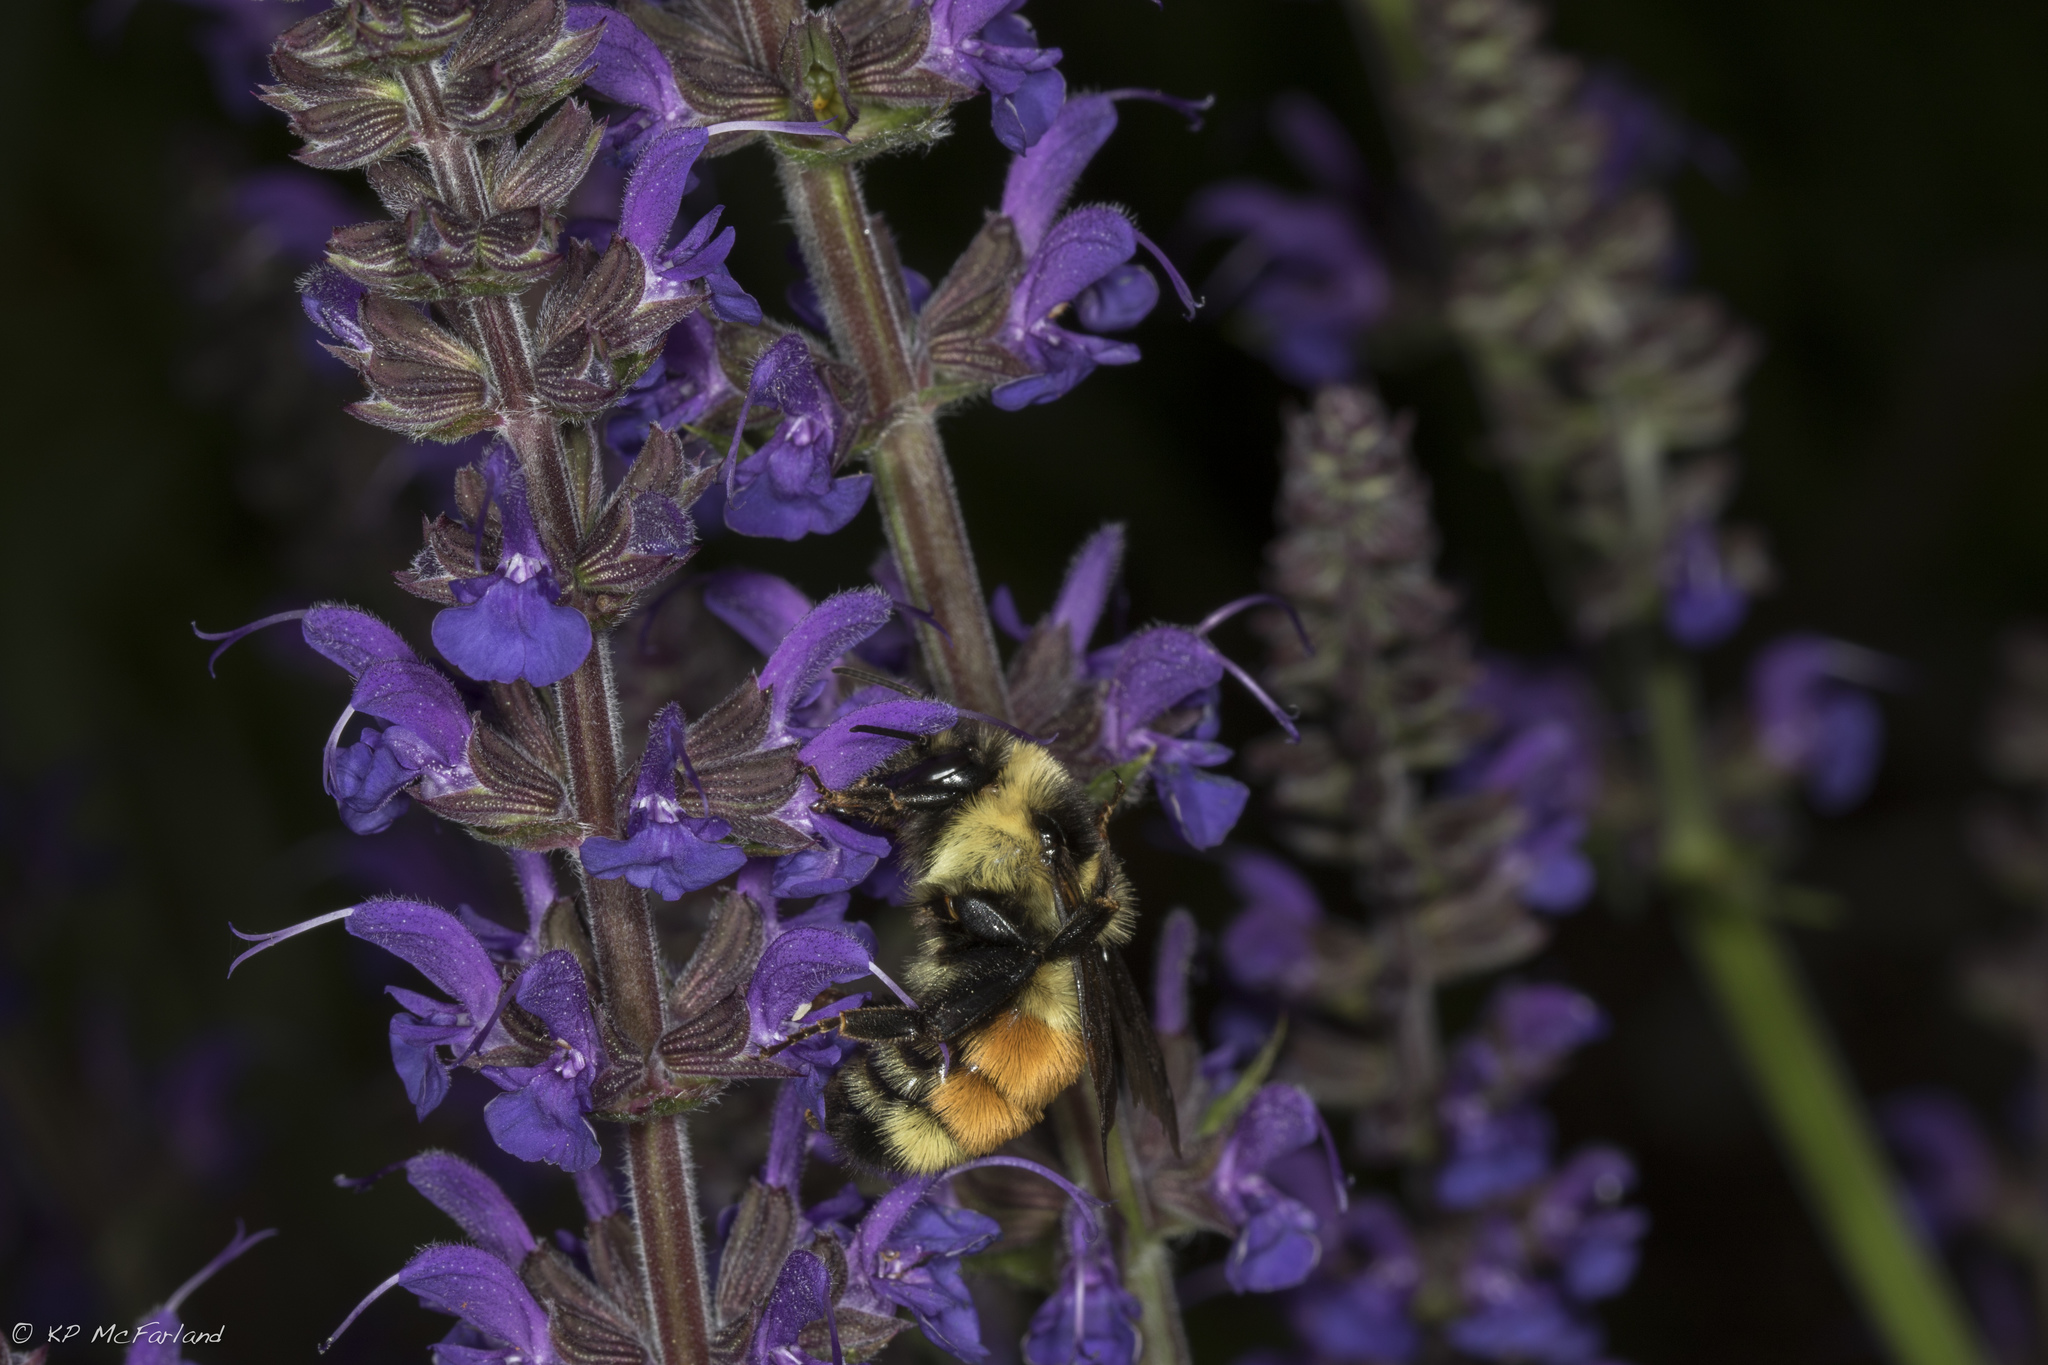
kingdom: Animalia
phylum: Arthropoda
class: Insecta
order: Hymenoptera
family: Apidae
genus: Bombus
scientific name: Bombus ternarius
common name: Tri-colored bumble bee
